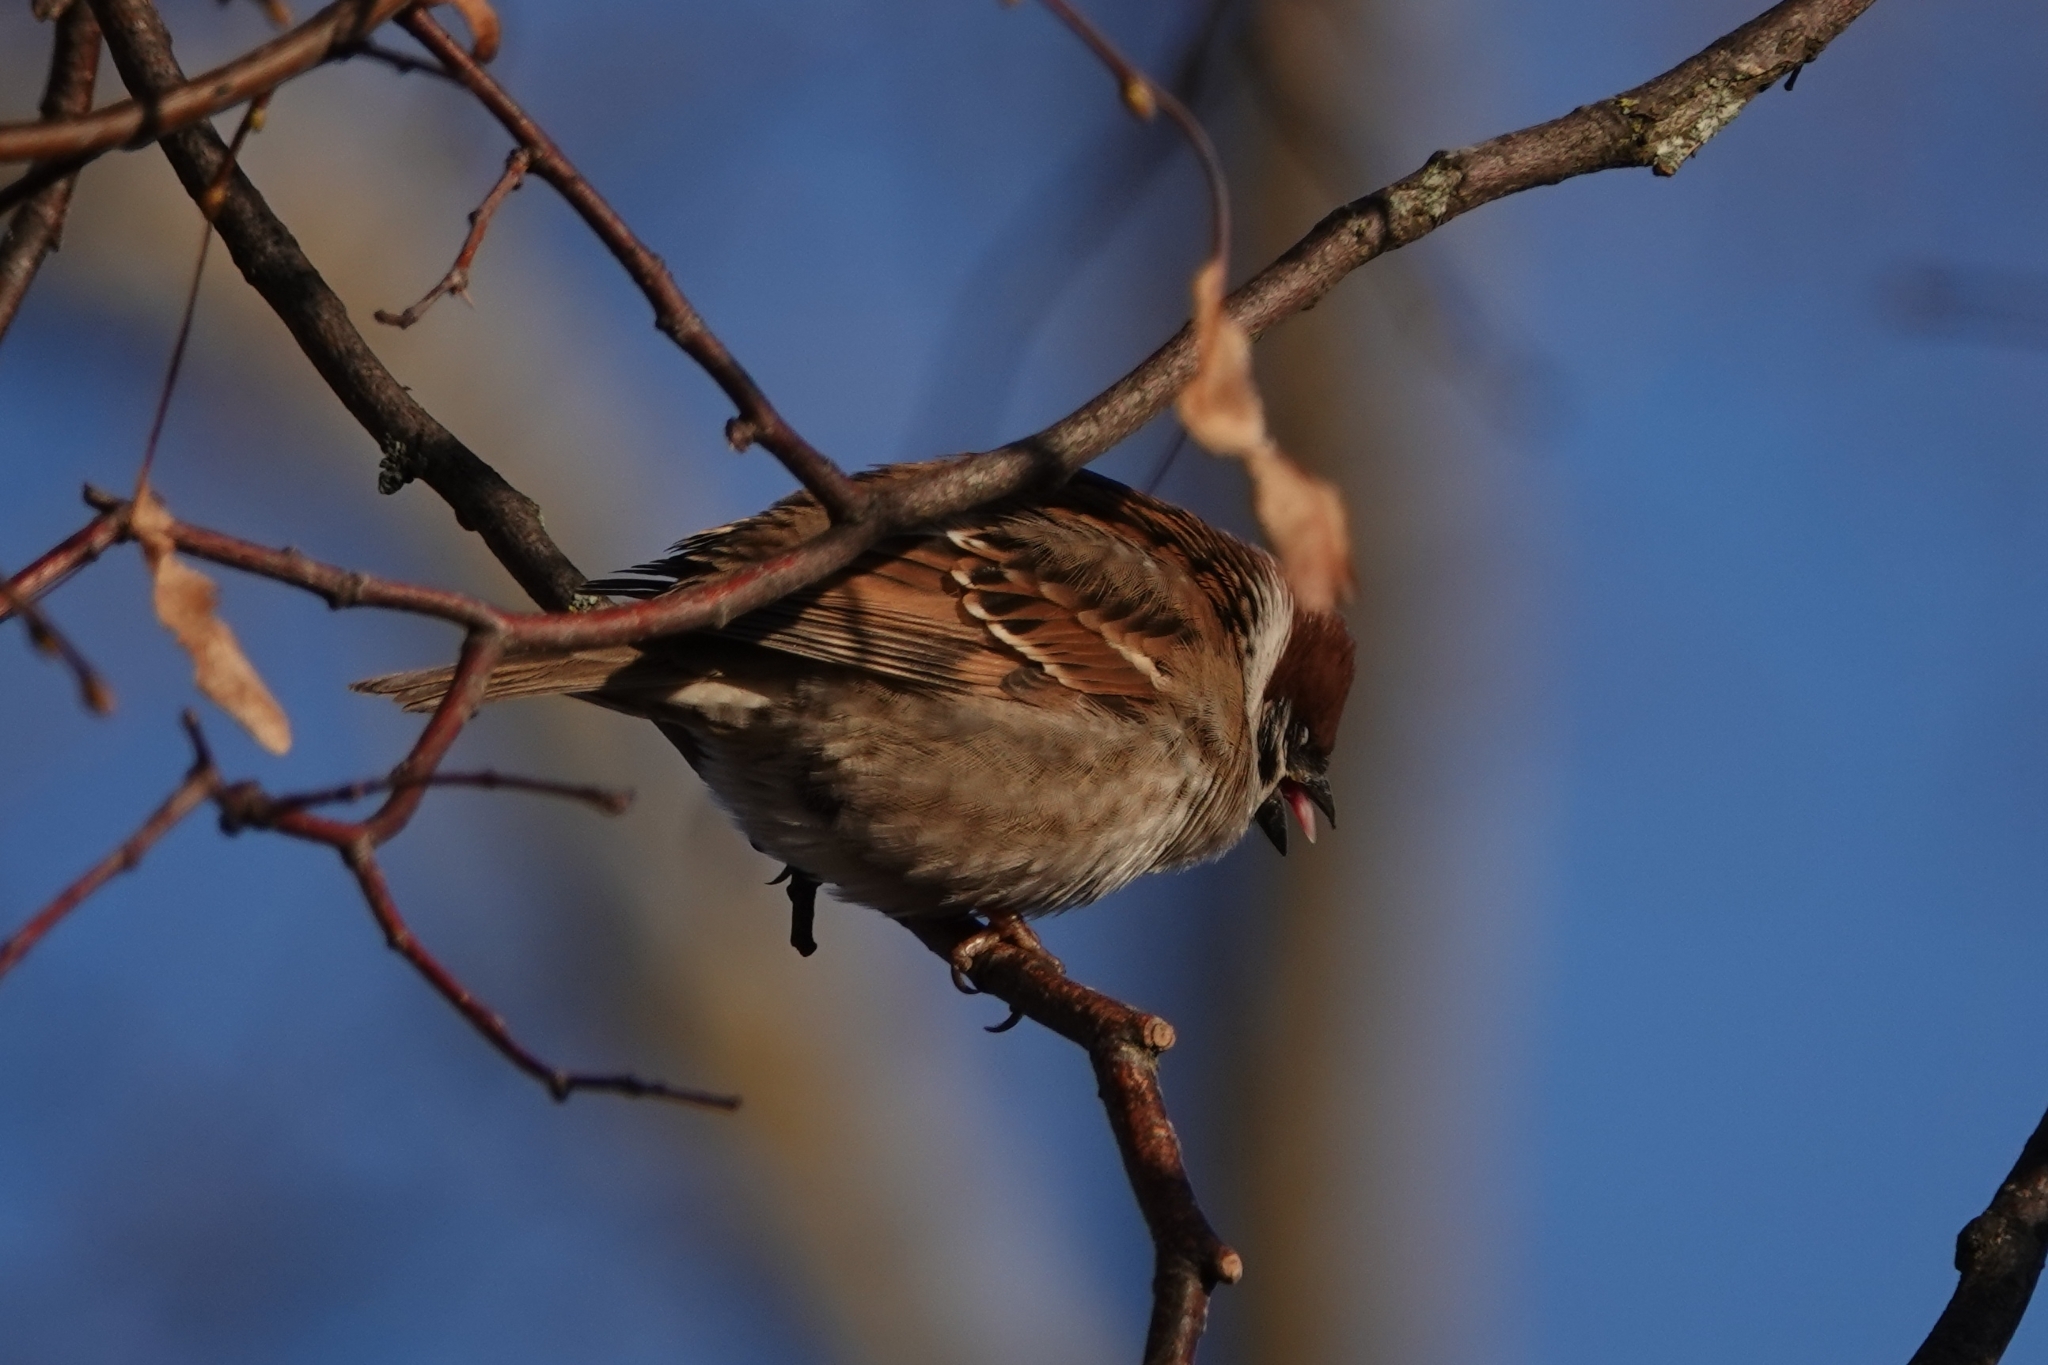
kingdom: Animalia
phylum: Chordata
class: Aves
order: Passeriformes
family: Passeridae
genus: Passer
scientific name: Passer montanus
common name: Eurasian tree sparrow
